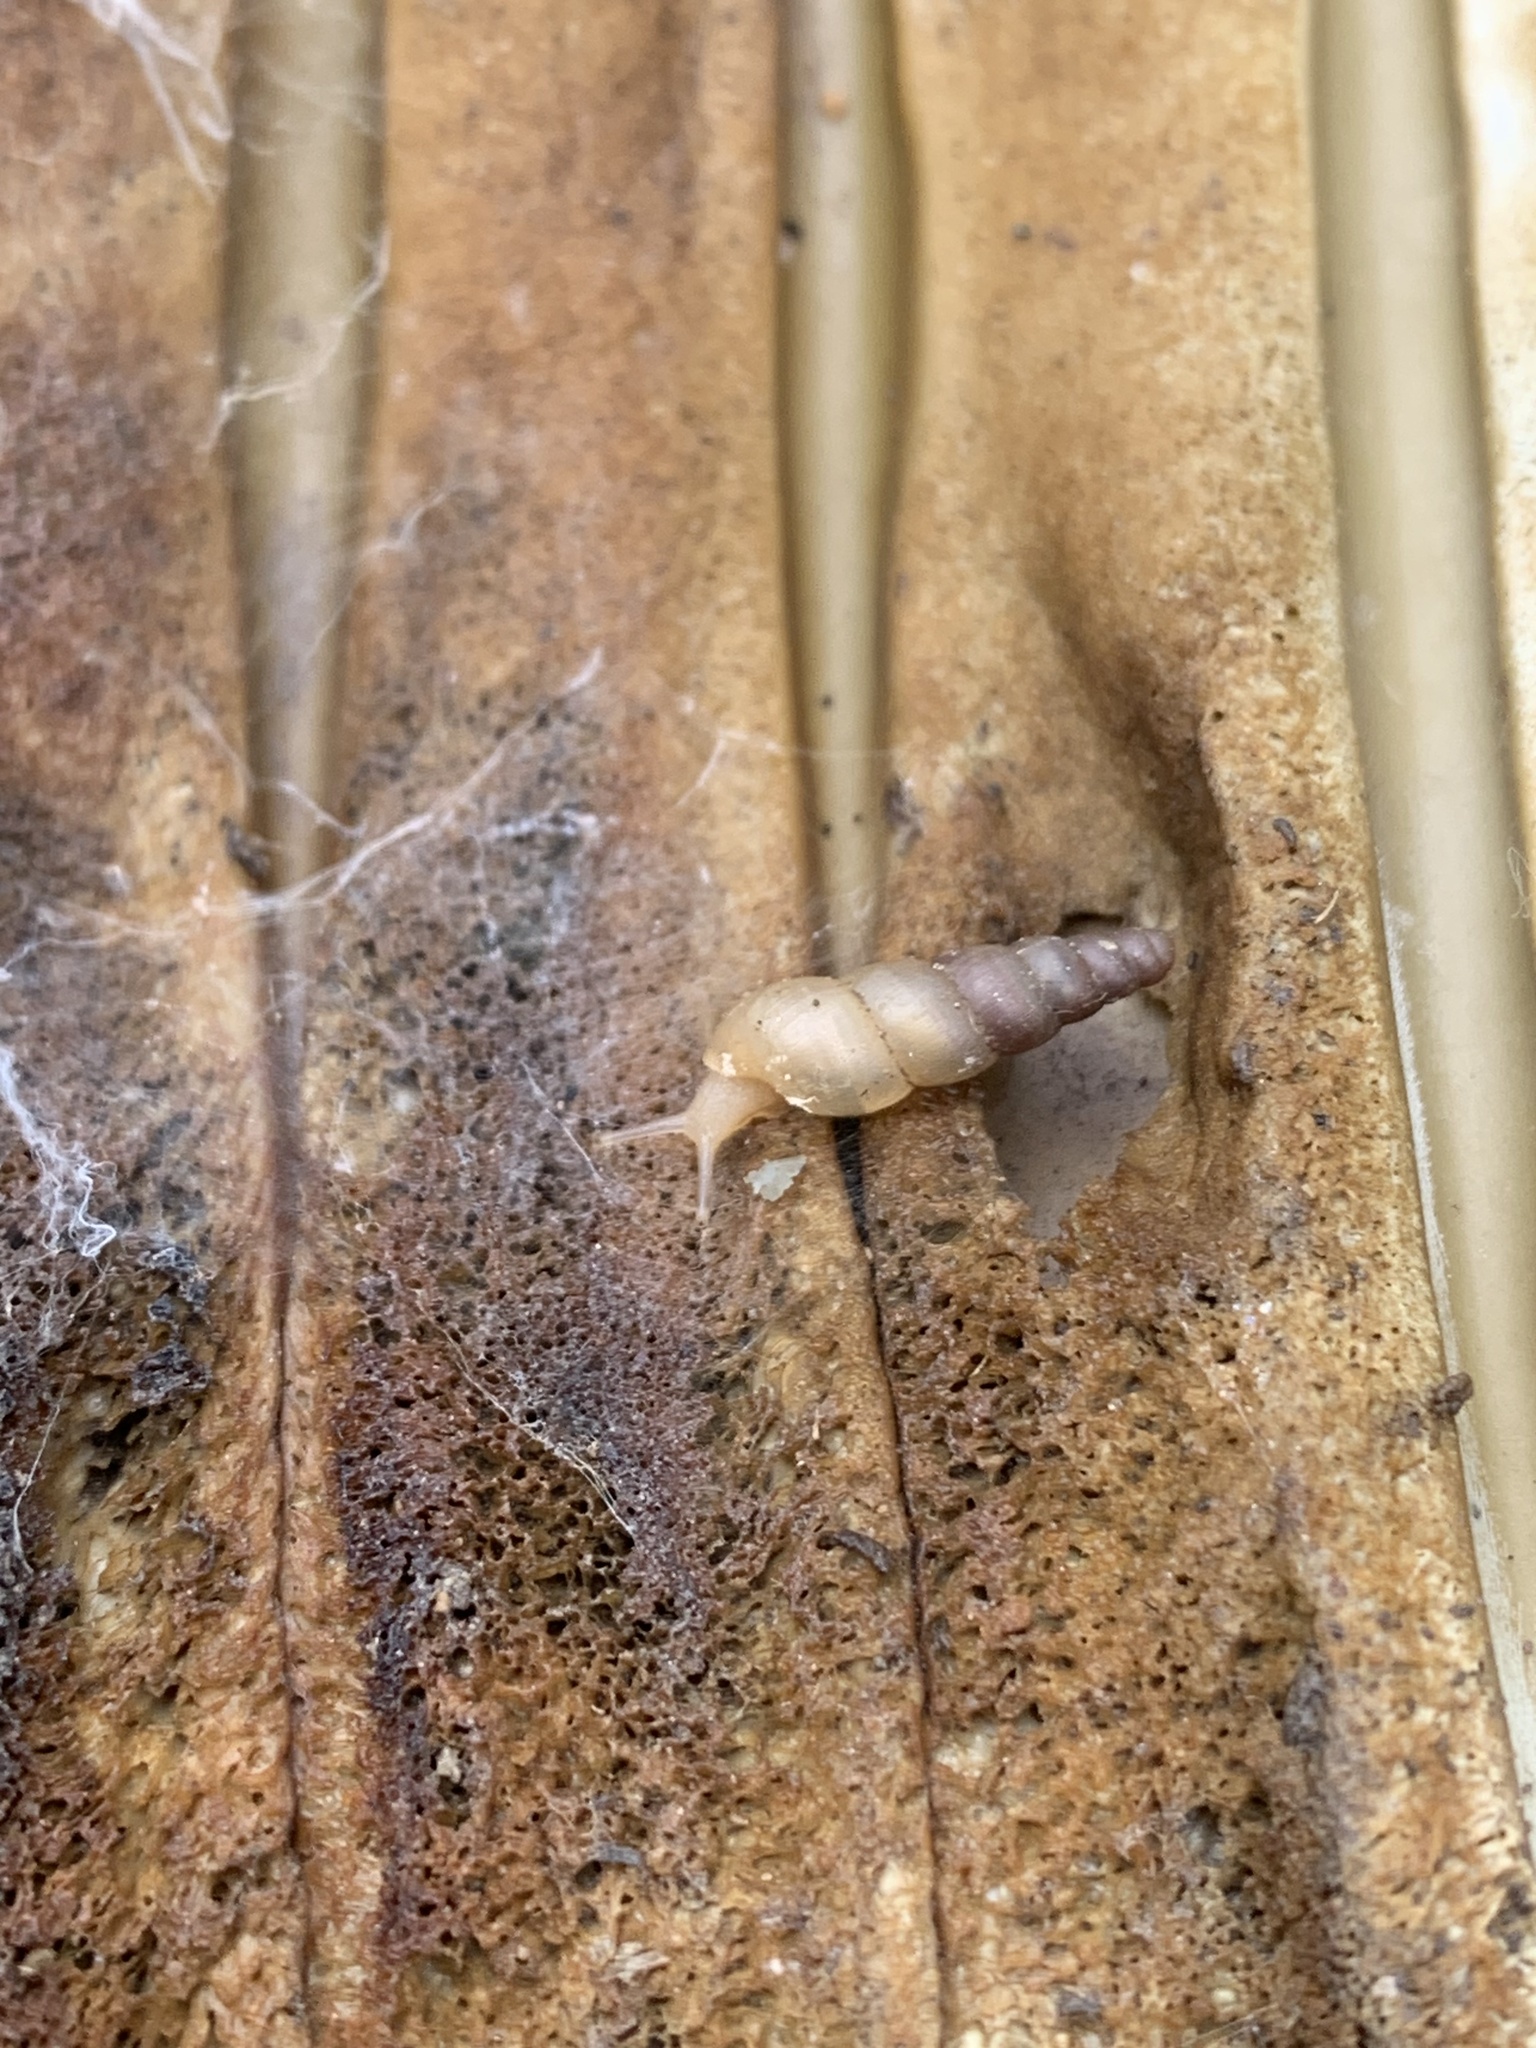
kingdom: Animalia
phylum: Mollusca
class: Gastropoda
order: Stylommatophora
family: Achatinidae
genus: Subulina
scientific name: Subulina octona
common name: Miniature awlsnail
